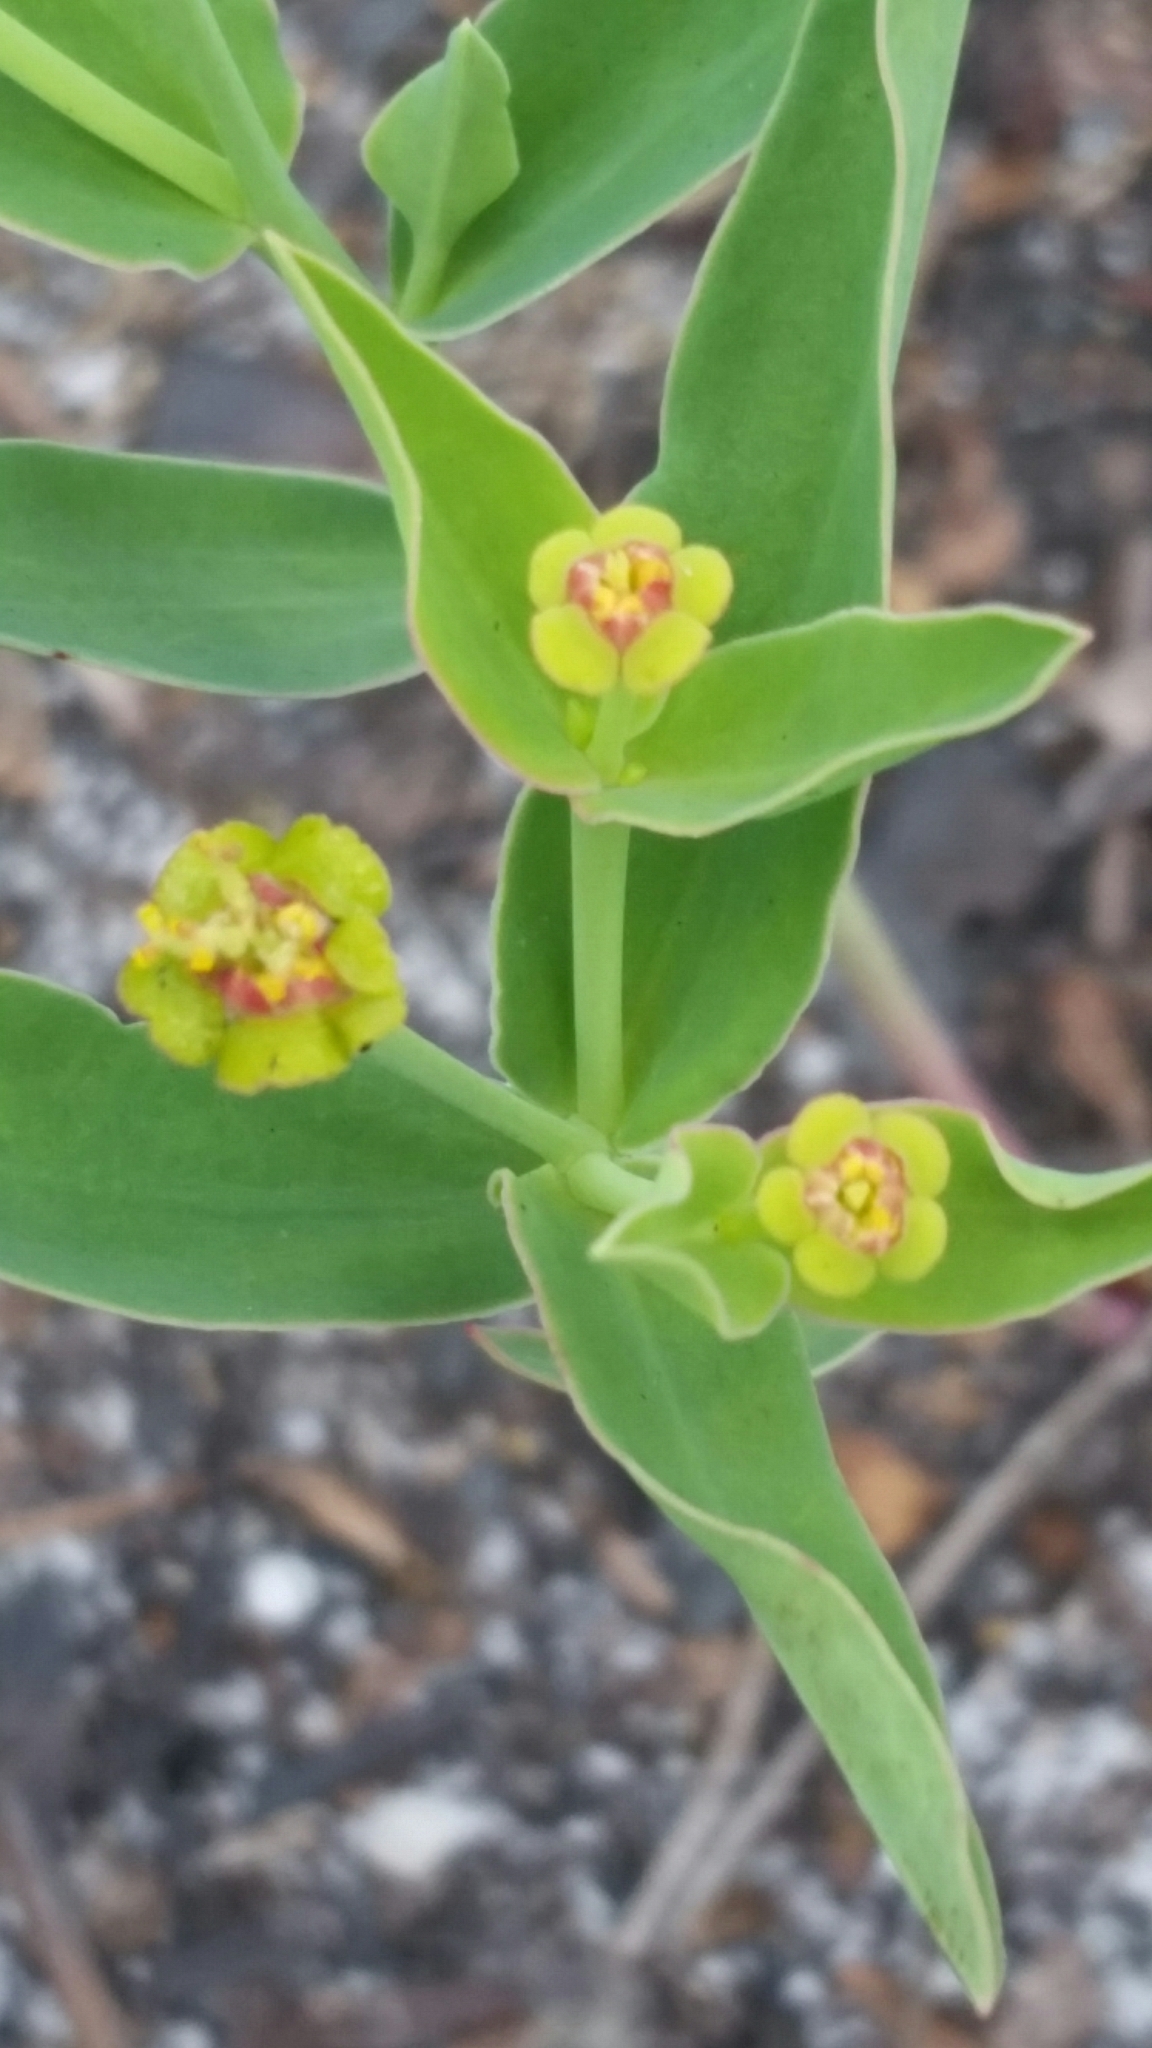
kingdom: Plantae
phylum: Tracheophyta
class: Magnoliopsida
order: Malpighiales
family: Euphorbiaceae
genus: Euphorbia
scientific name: Euphorbia inundata
